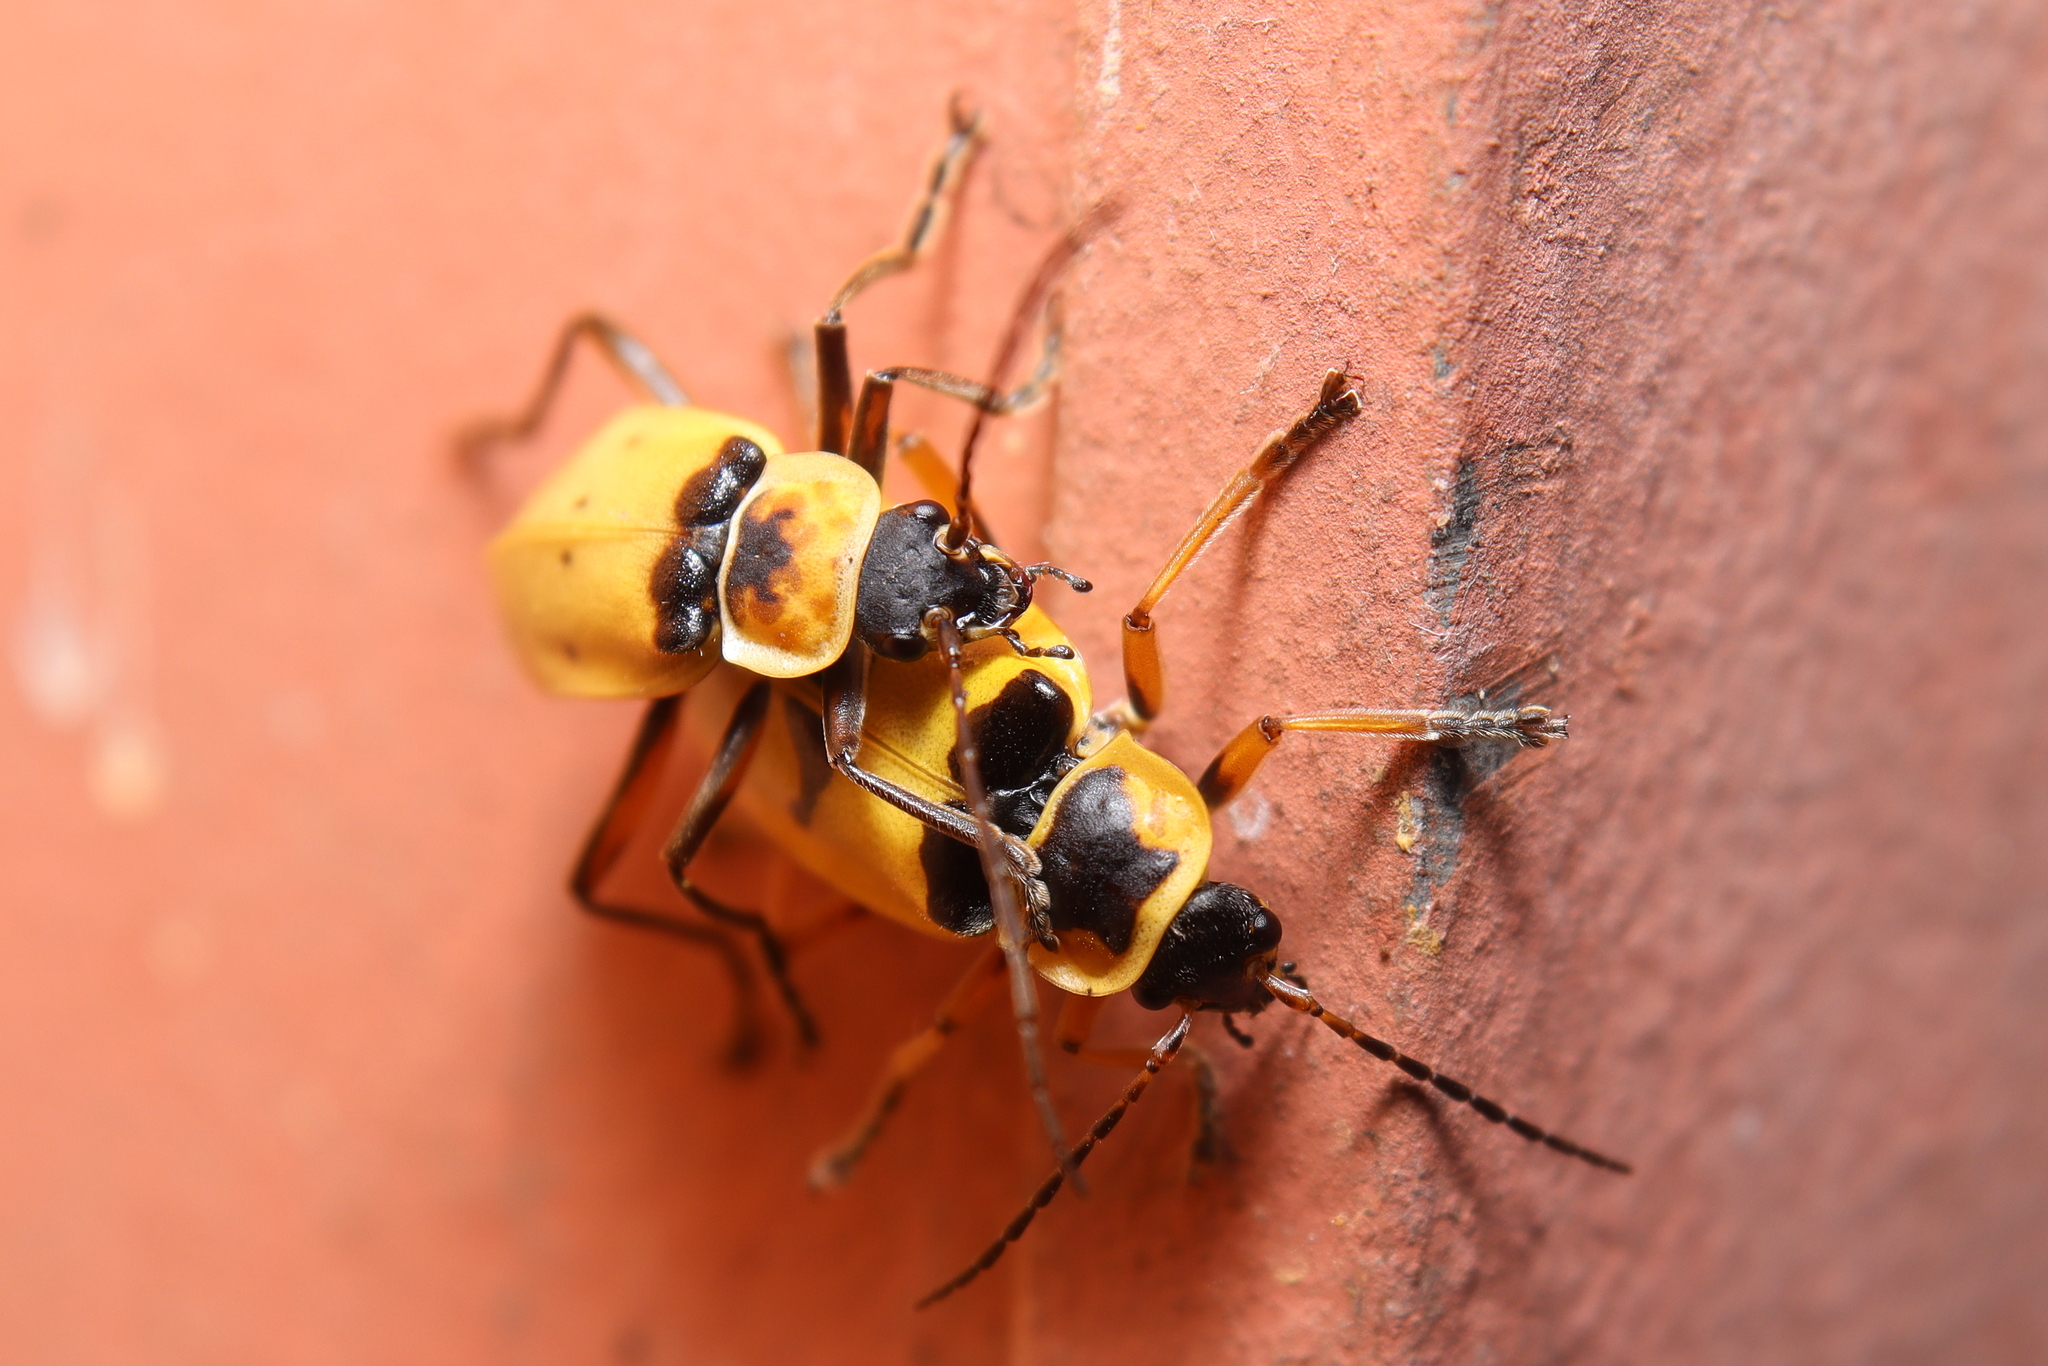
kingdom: Animalia
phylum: Arthropoda
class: Insecta
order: Coleoptera
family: Cantharidae
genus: Chauliognathus
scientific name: Chauliognathus
